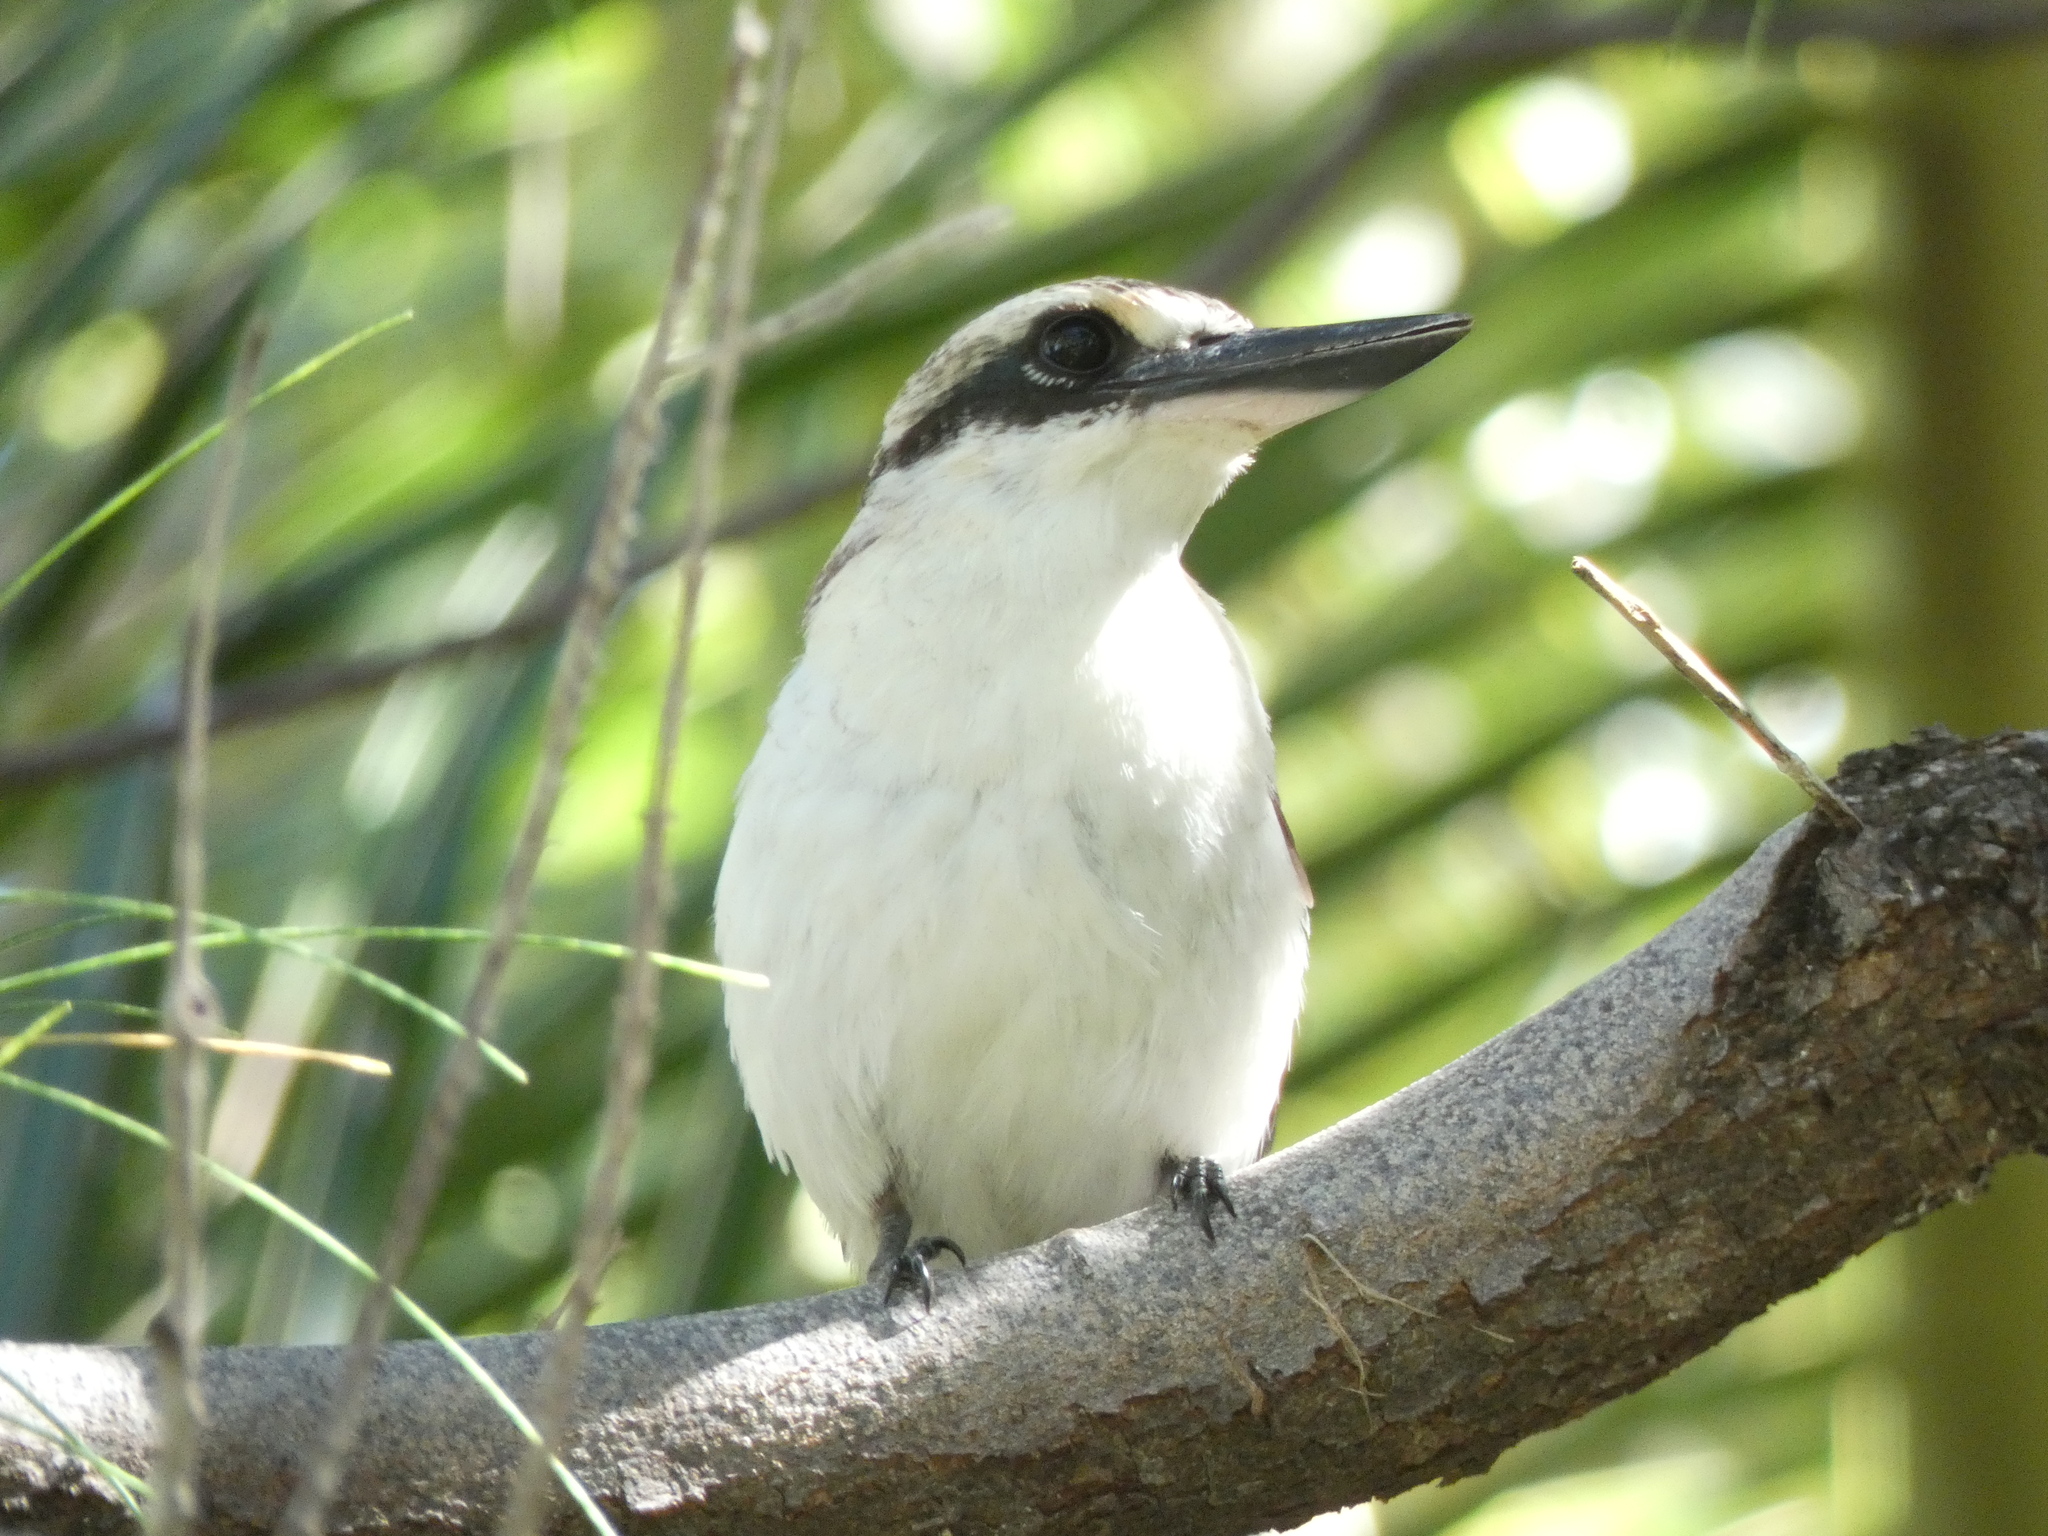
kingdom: Animalia
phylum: Chordata
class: Aves
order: Coraciiformes
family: Alcedinidae
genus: Todiramphus
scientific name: Todiramphus tutus
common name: Chattering kingfisher
